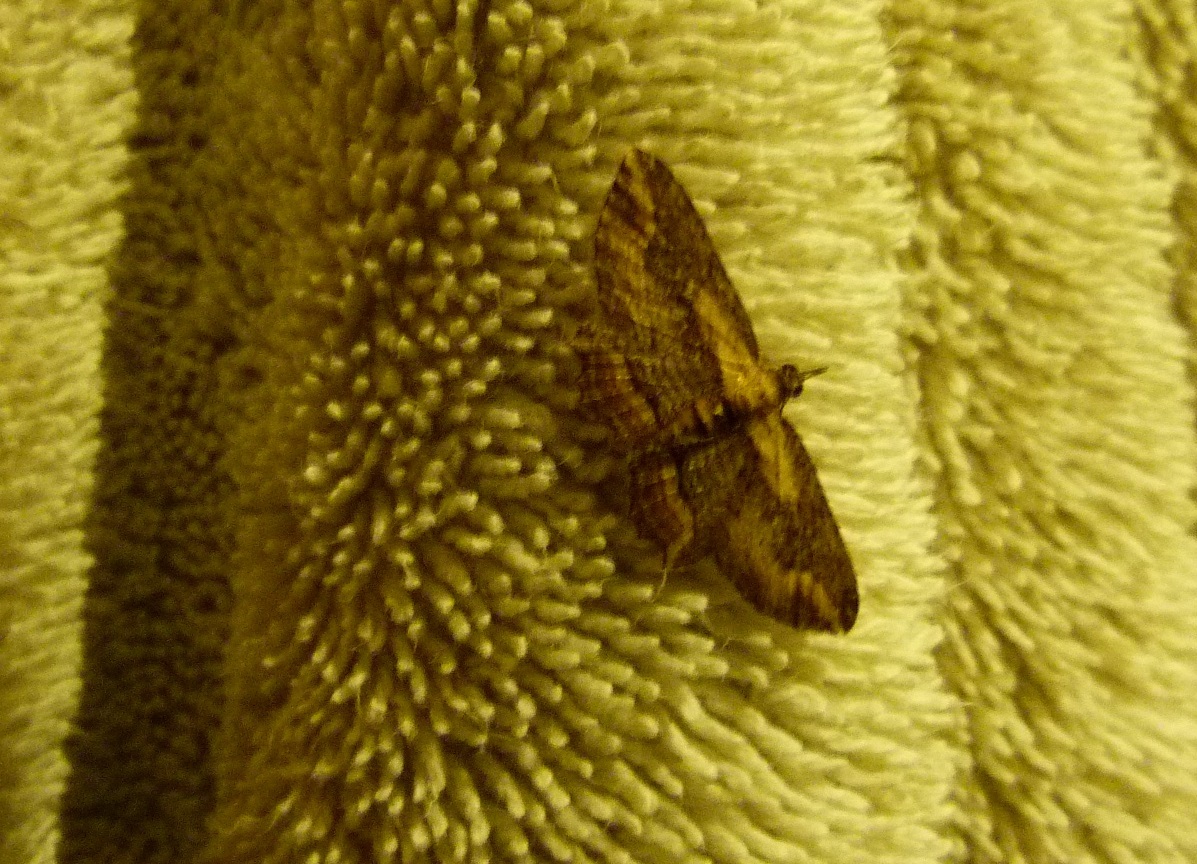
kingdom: Animalia
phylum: Arthropoda
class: Insecta
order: Lepidoptera
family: Geometridae
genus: Chloroclystis
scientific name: Chloroclystis filata
